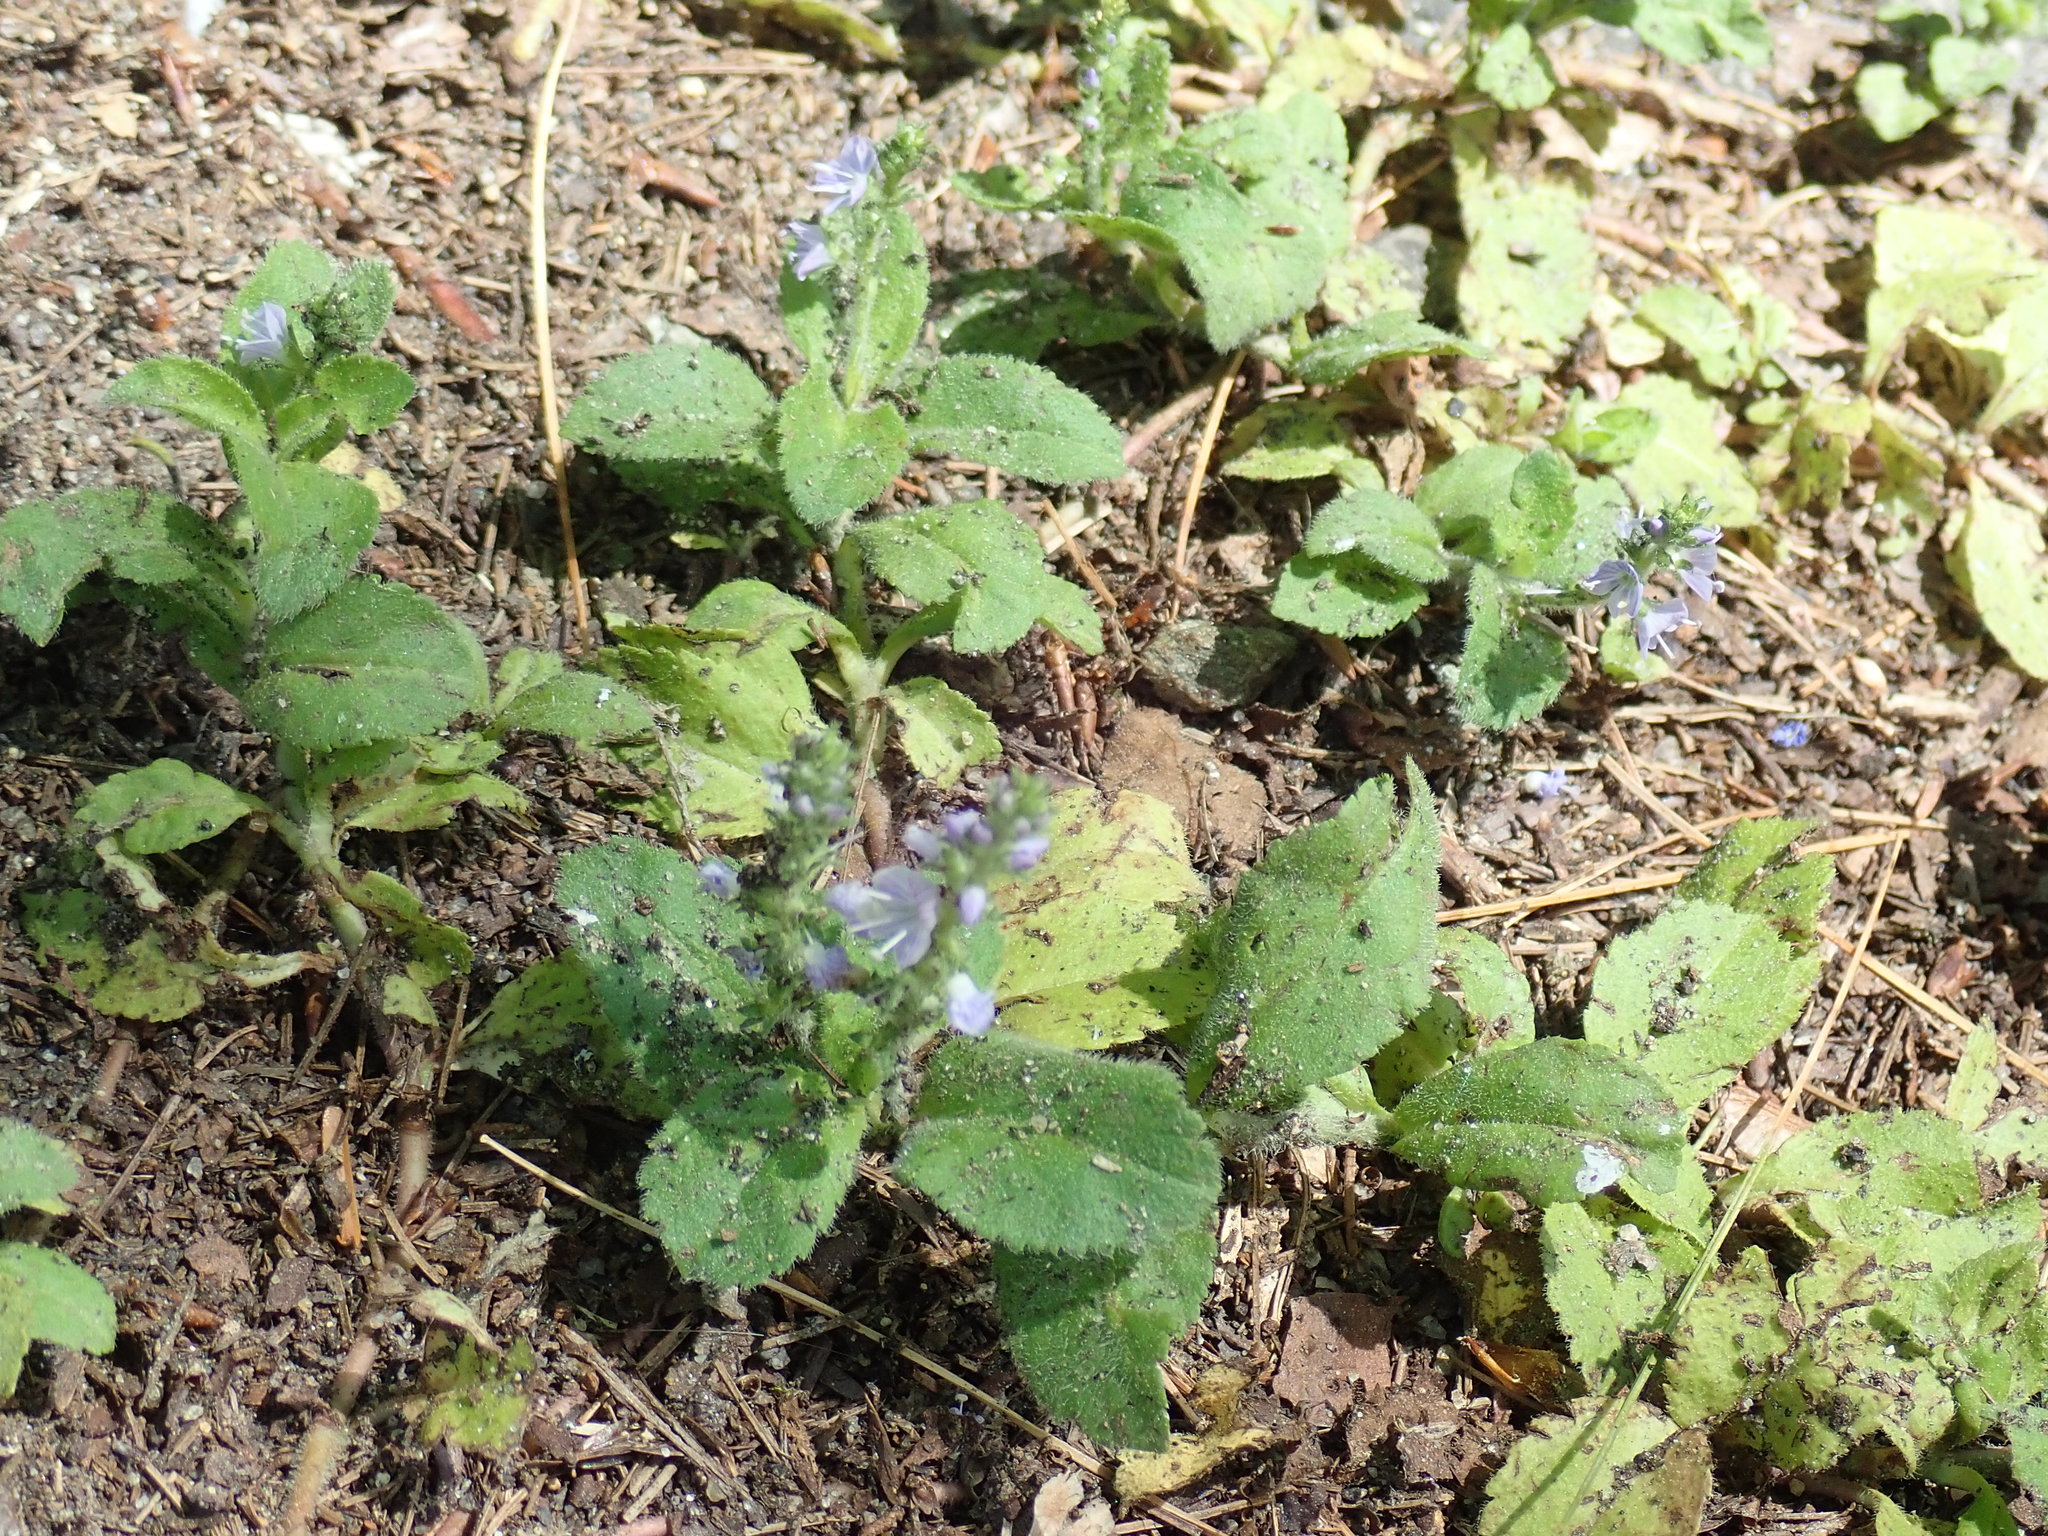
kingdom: Plantae
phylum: Tracheophyta
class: Magnoliopsida
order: Lamiales
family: Plantaginaceae
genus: Veronica
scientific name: Veronica officinalis
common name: Common speedwell
